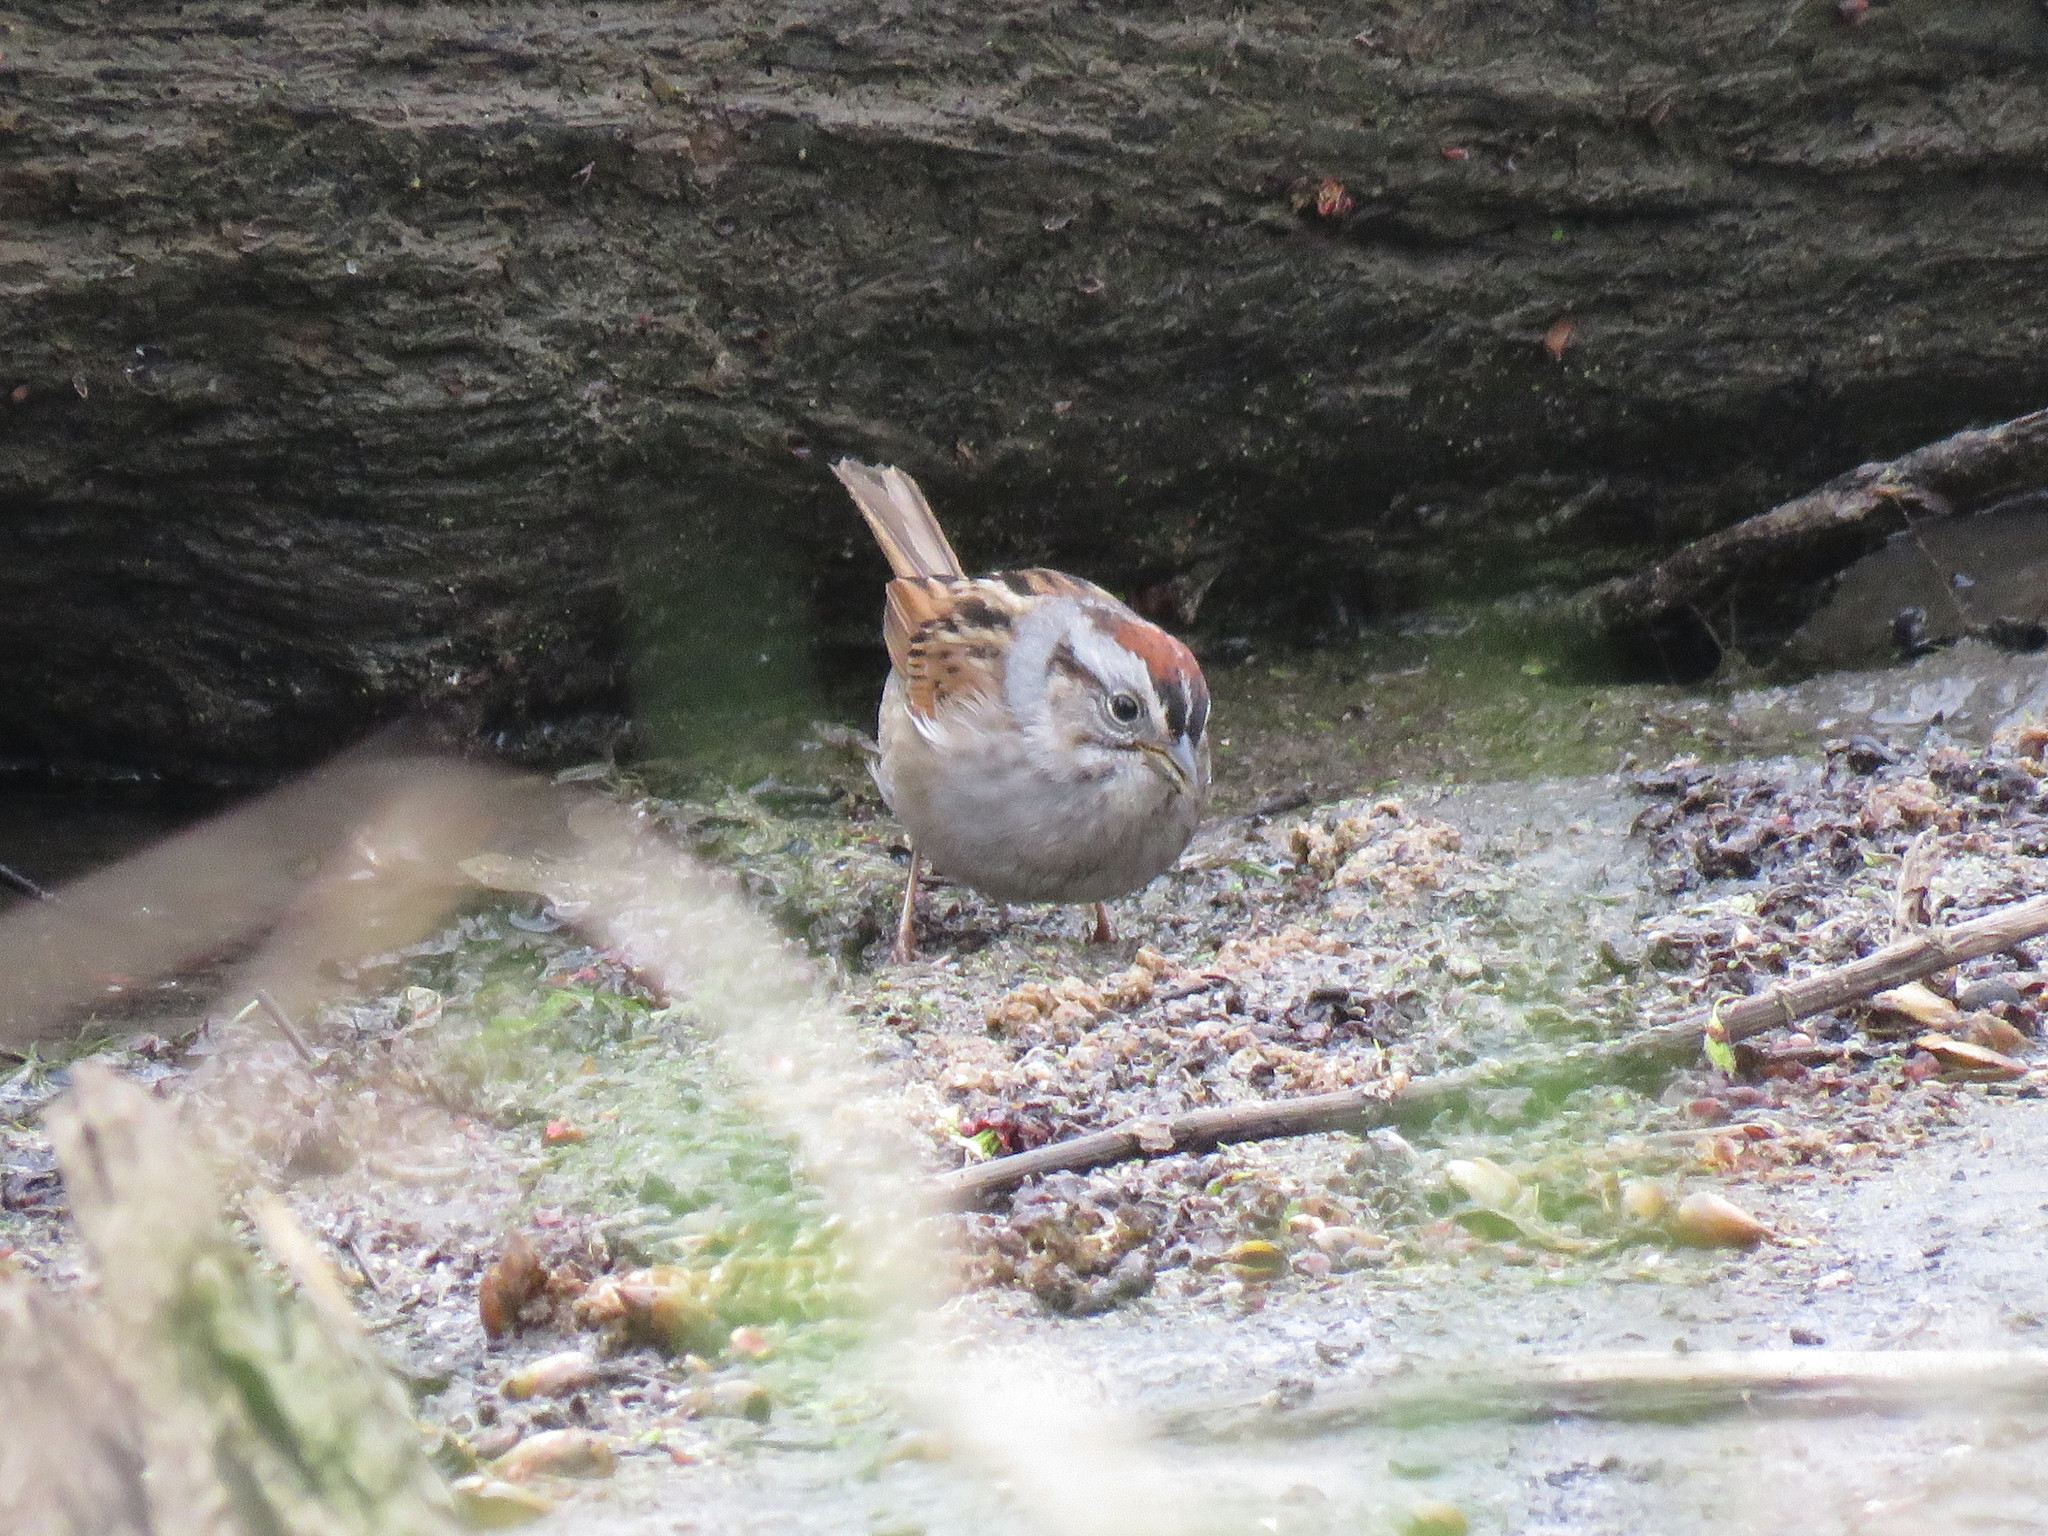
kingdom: Animalia
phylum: Chordata
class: Aves
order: Passeriformes
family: Passerellidae
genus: Melospiza
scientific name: Melospiza georgiana
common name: Swamp sparrow
